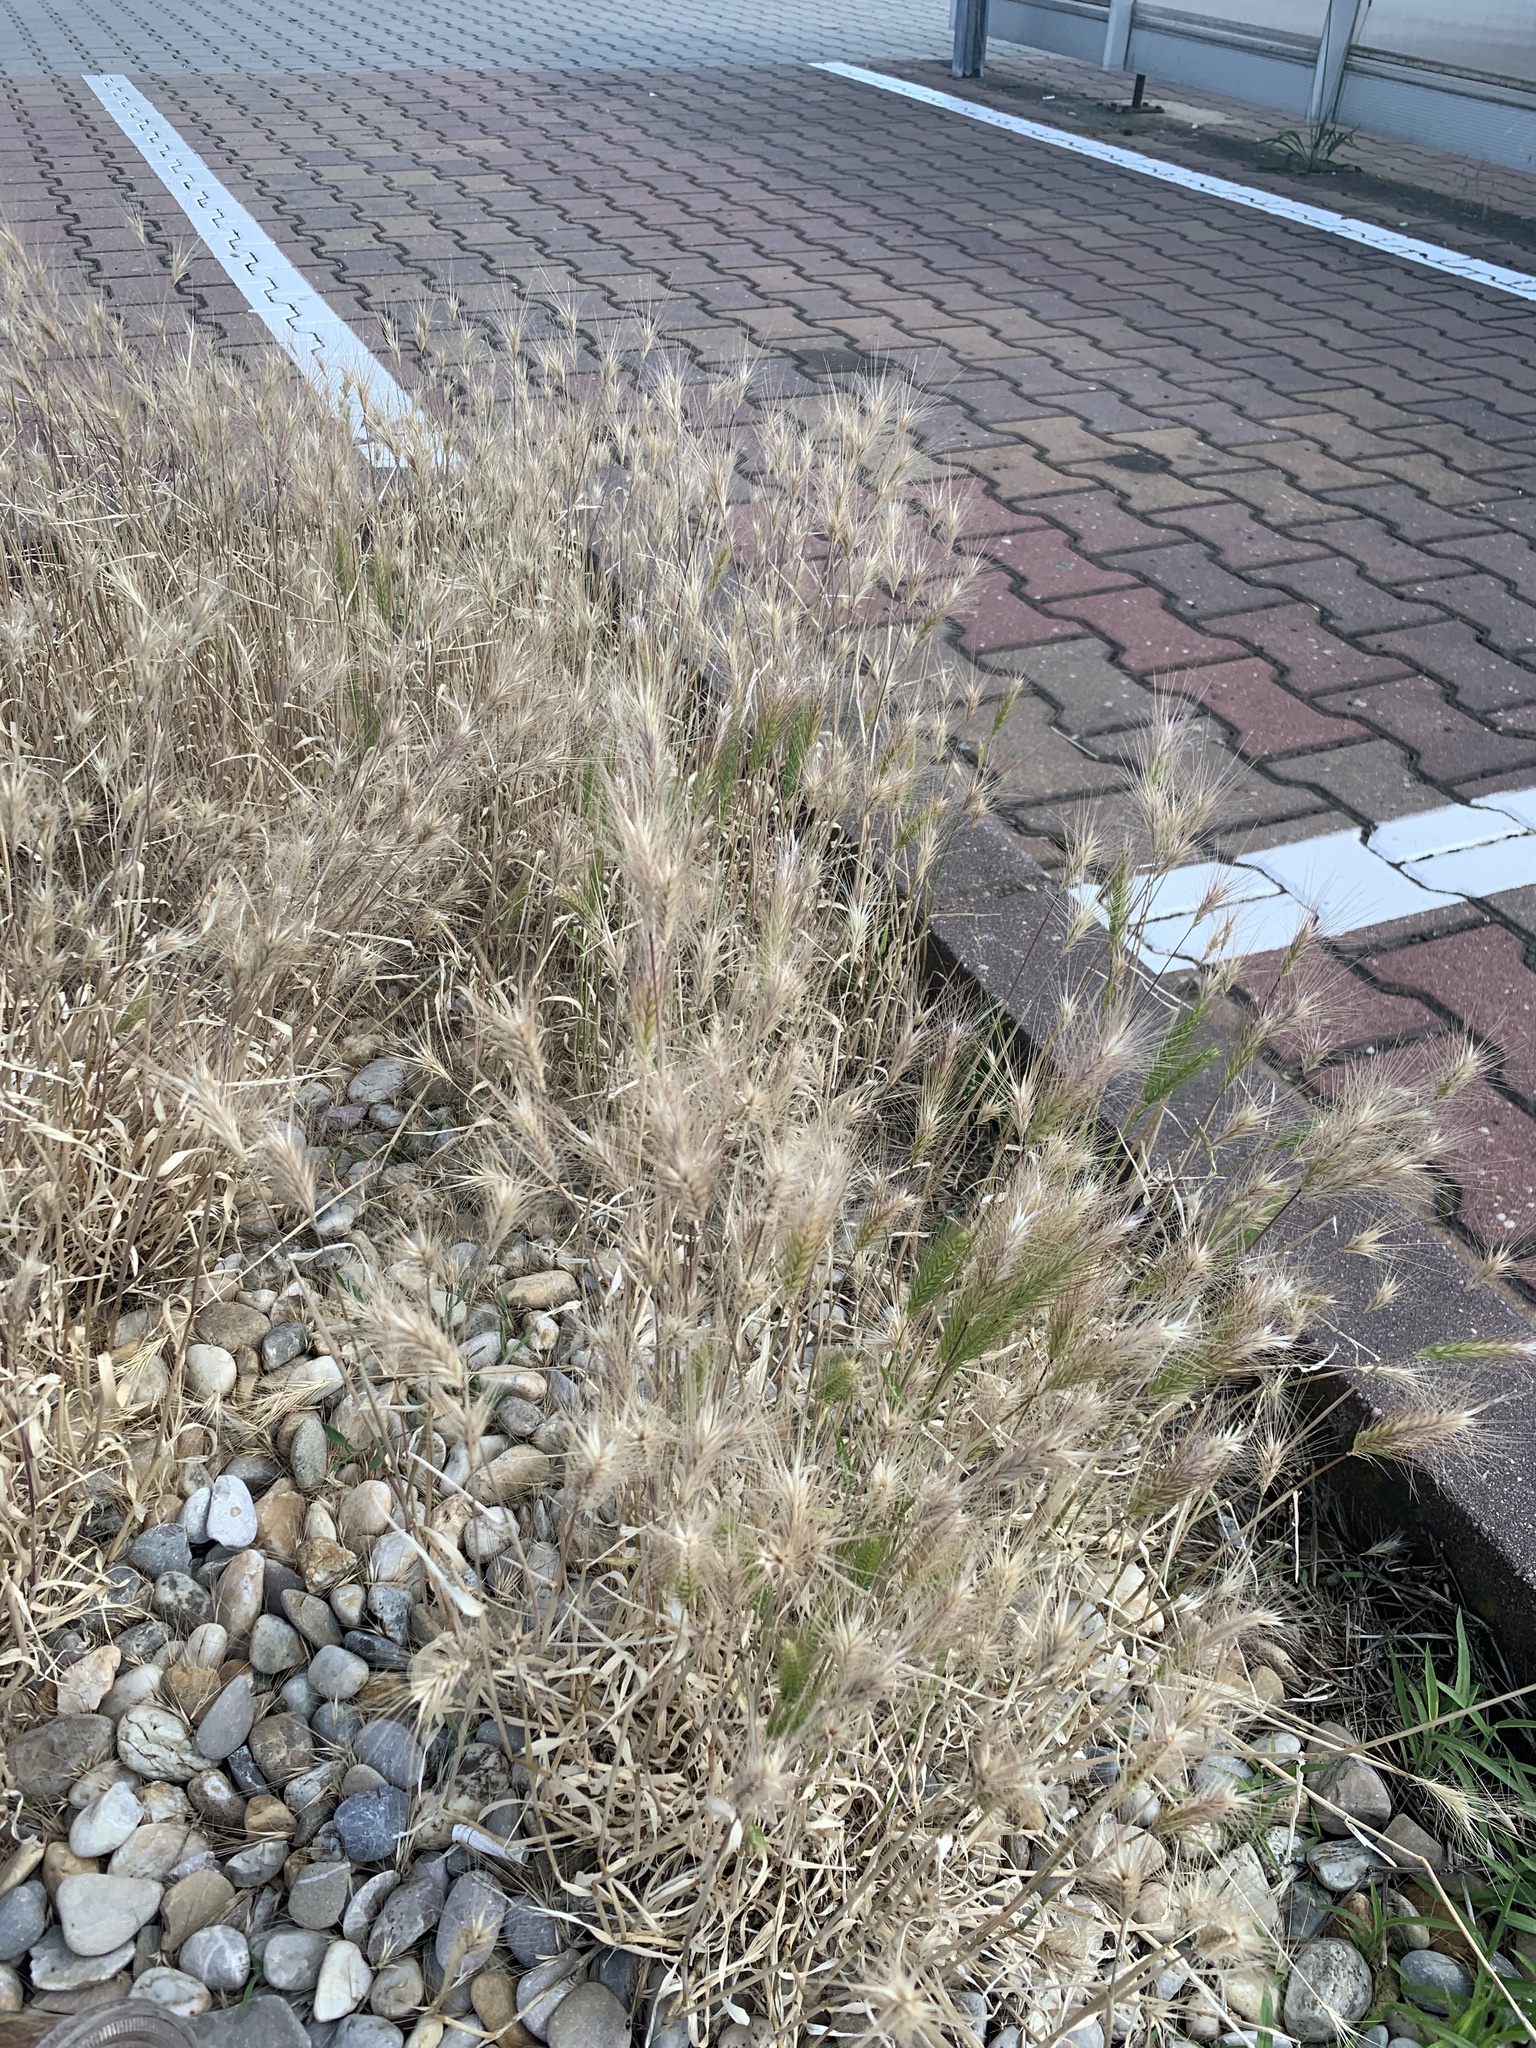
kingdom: Plantae
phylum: Tracheophyta
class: Liliopsida
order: Poales
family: Poaceae
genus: Hordeum
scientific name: Hordeum murinum
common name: Wall barley
